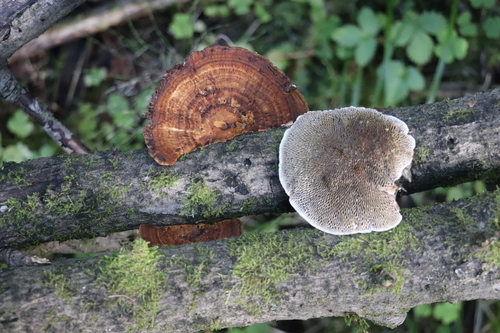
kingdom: Fungi
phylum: Basidiomycota
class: Agaricomycetes
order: Polyporales
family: Polyporaceae
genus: Daedaleopsis
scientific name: Daedaleopsis confragosa
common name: Blushing bracket
